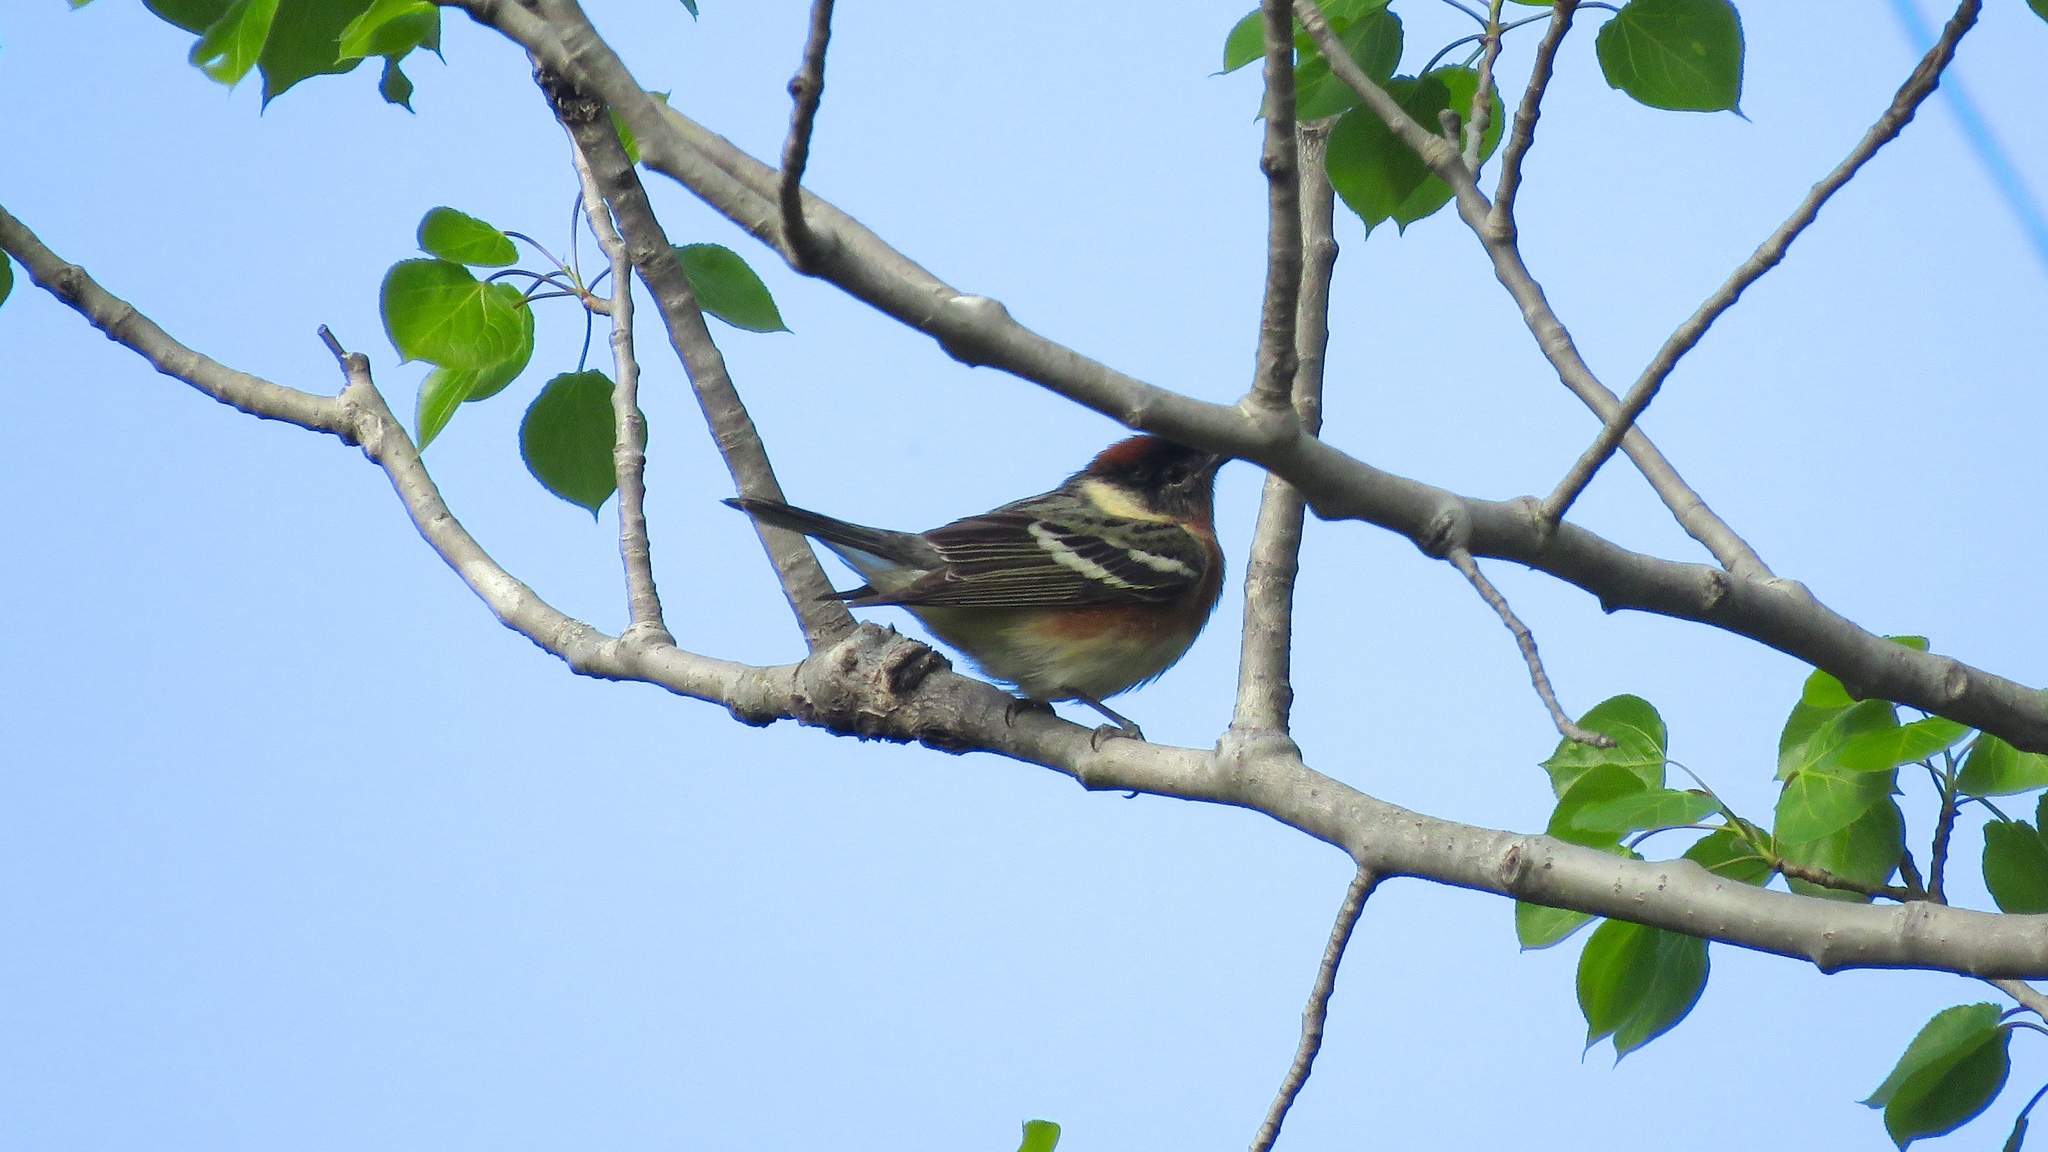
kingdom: Animalia
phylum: Chordata
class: Aves
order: Passeriformes
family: Parulidae
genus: Setophaga
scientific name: Setophaga castanea
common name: Bay-breasted warbler
